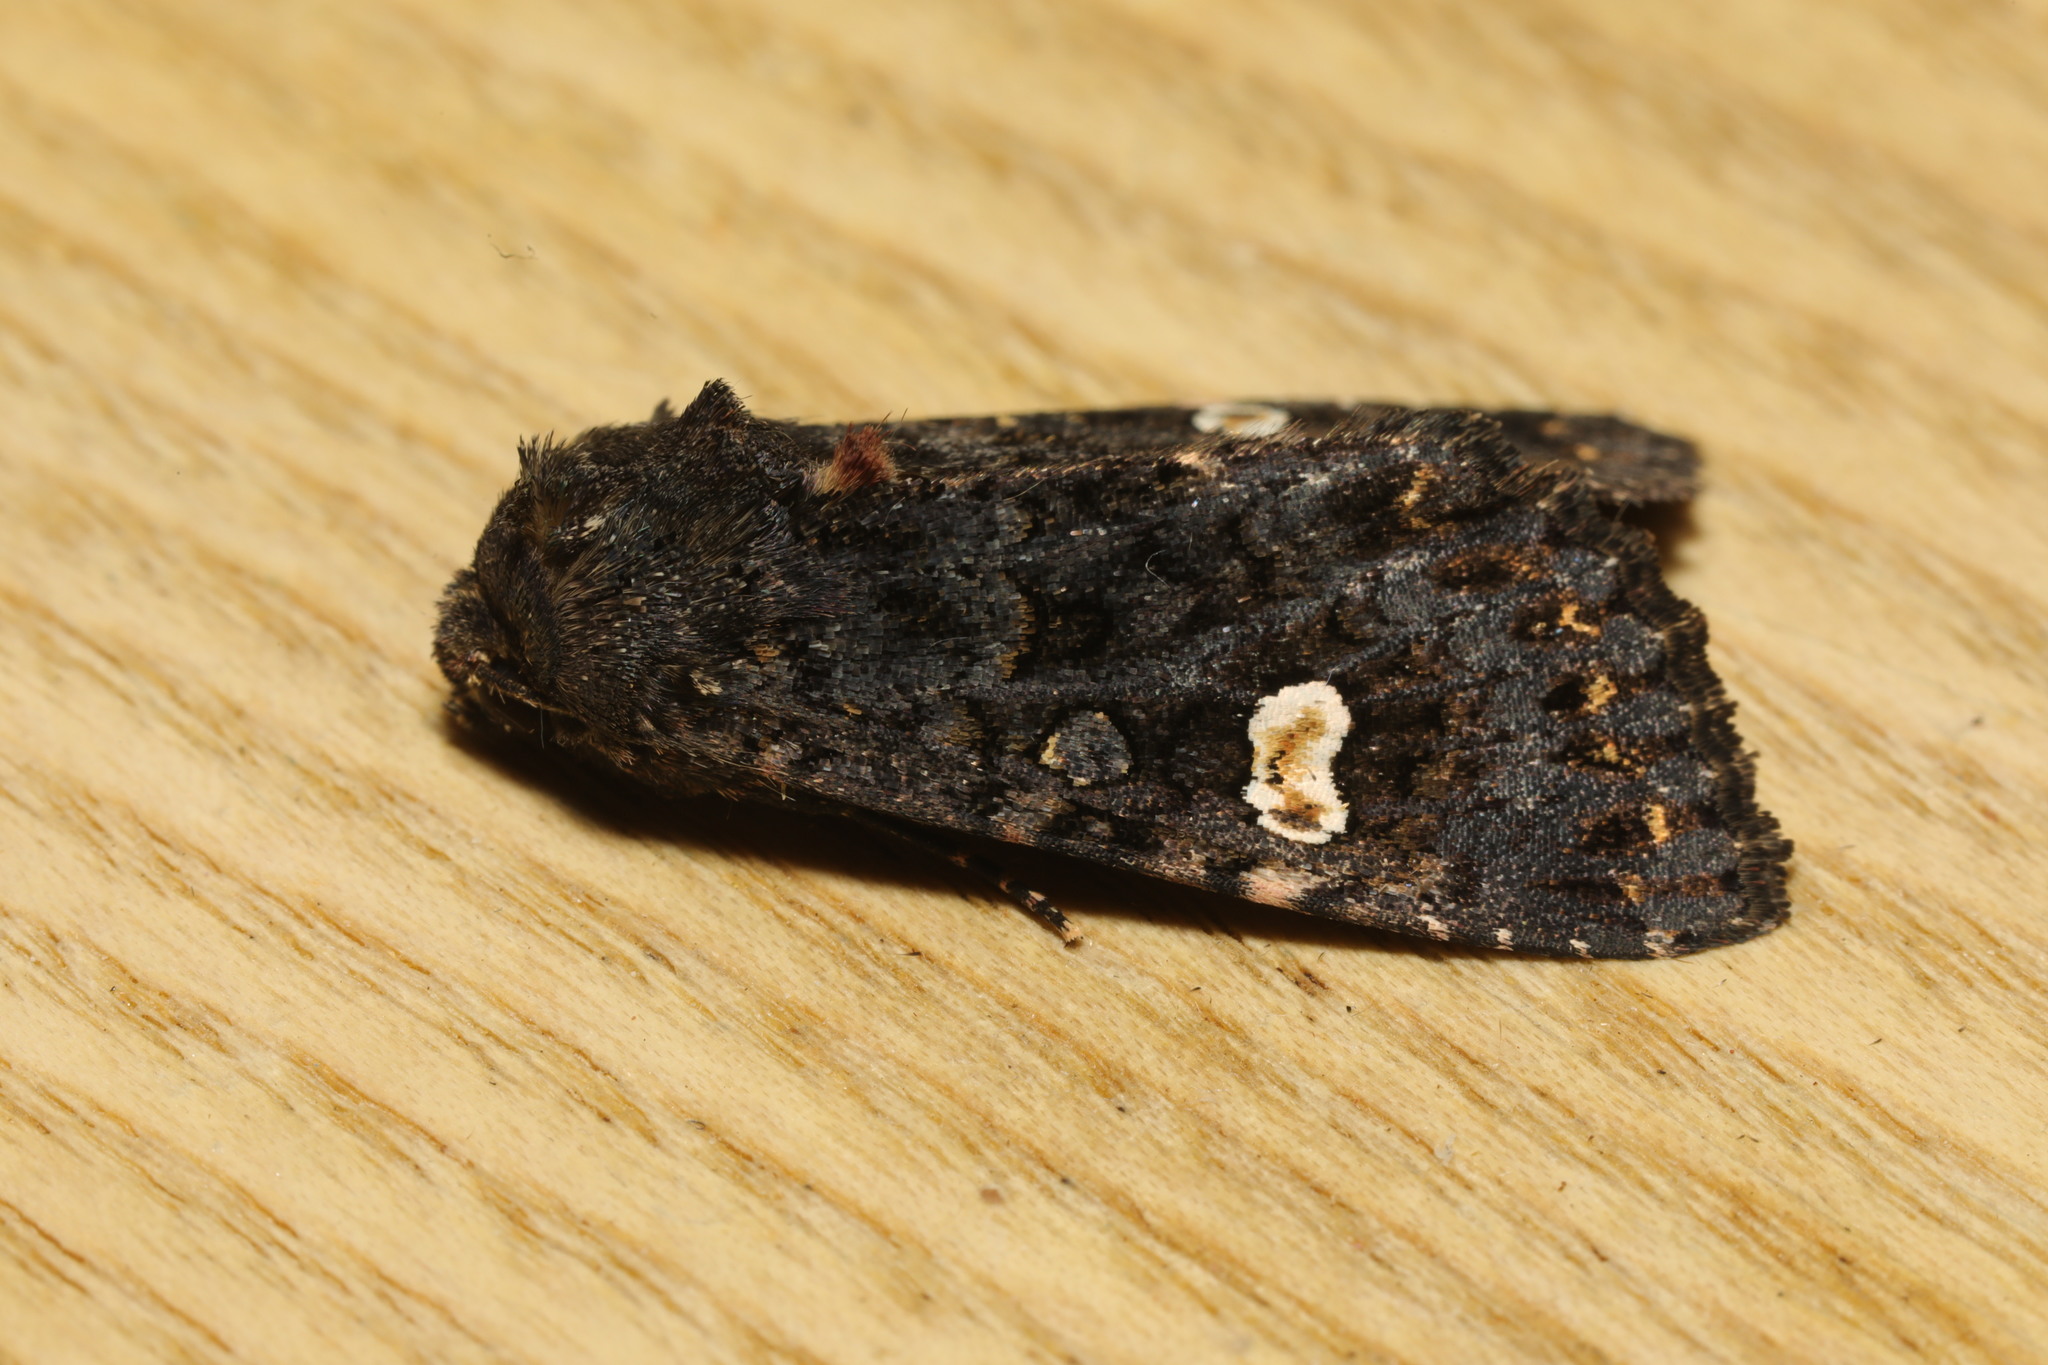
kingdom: Animalia
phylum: Arthropoda
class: Insecta
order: Lepidoptera
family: Noctuidae
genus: Melanchra
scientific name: Melanchra persicariae
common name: Dot moth
